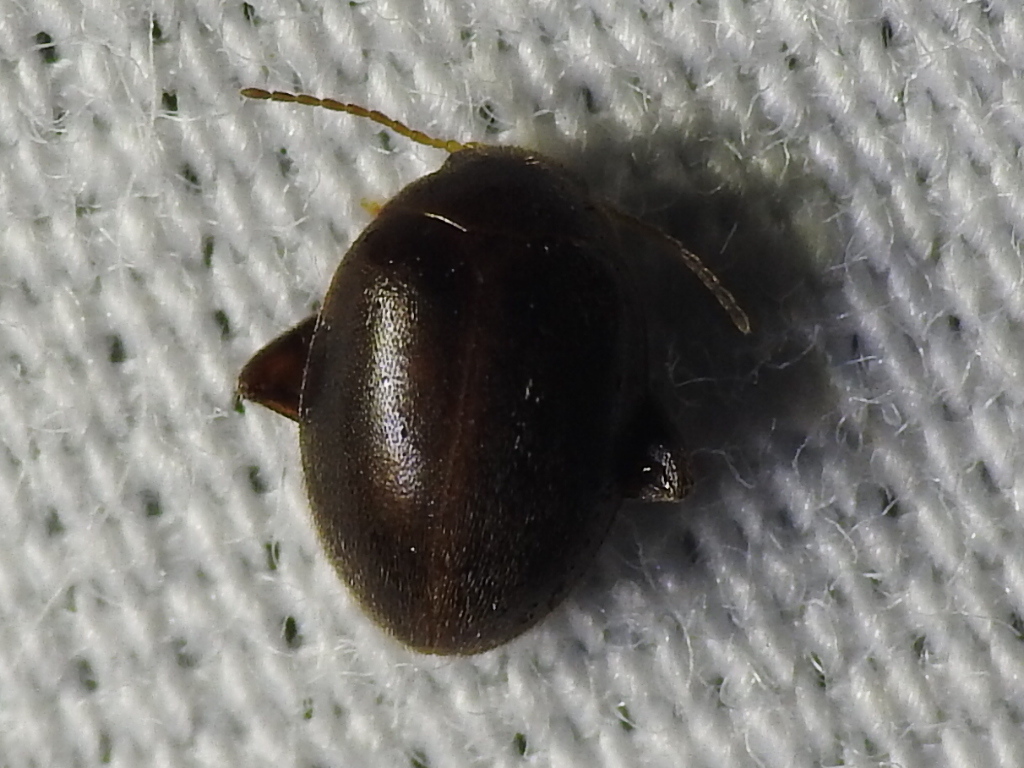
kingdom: Animalia
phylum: Arthropoda
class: Insecta
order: Coleoptera
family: Scirtidae
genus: Scirtes
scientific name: Scirtes tibialis
